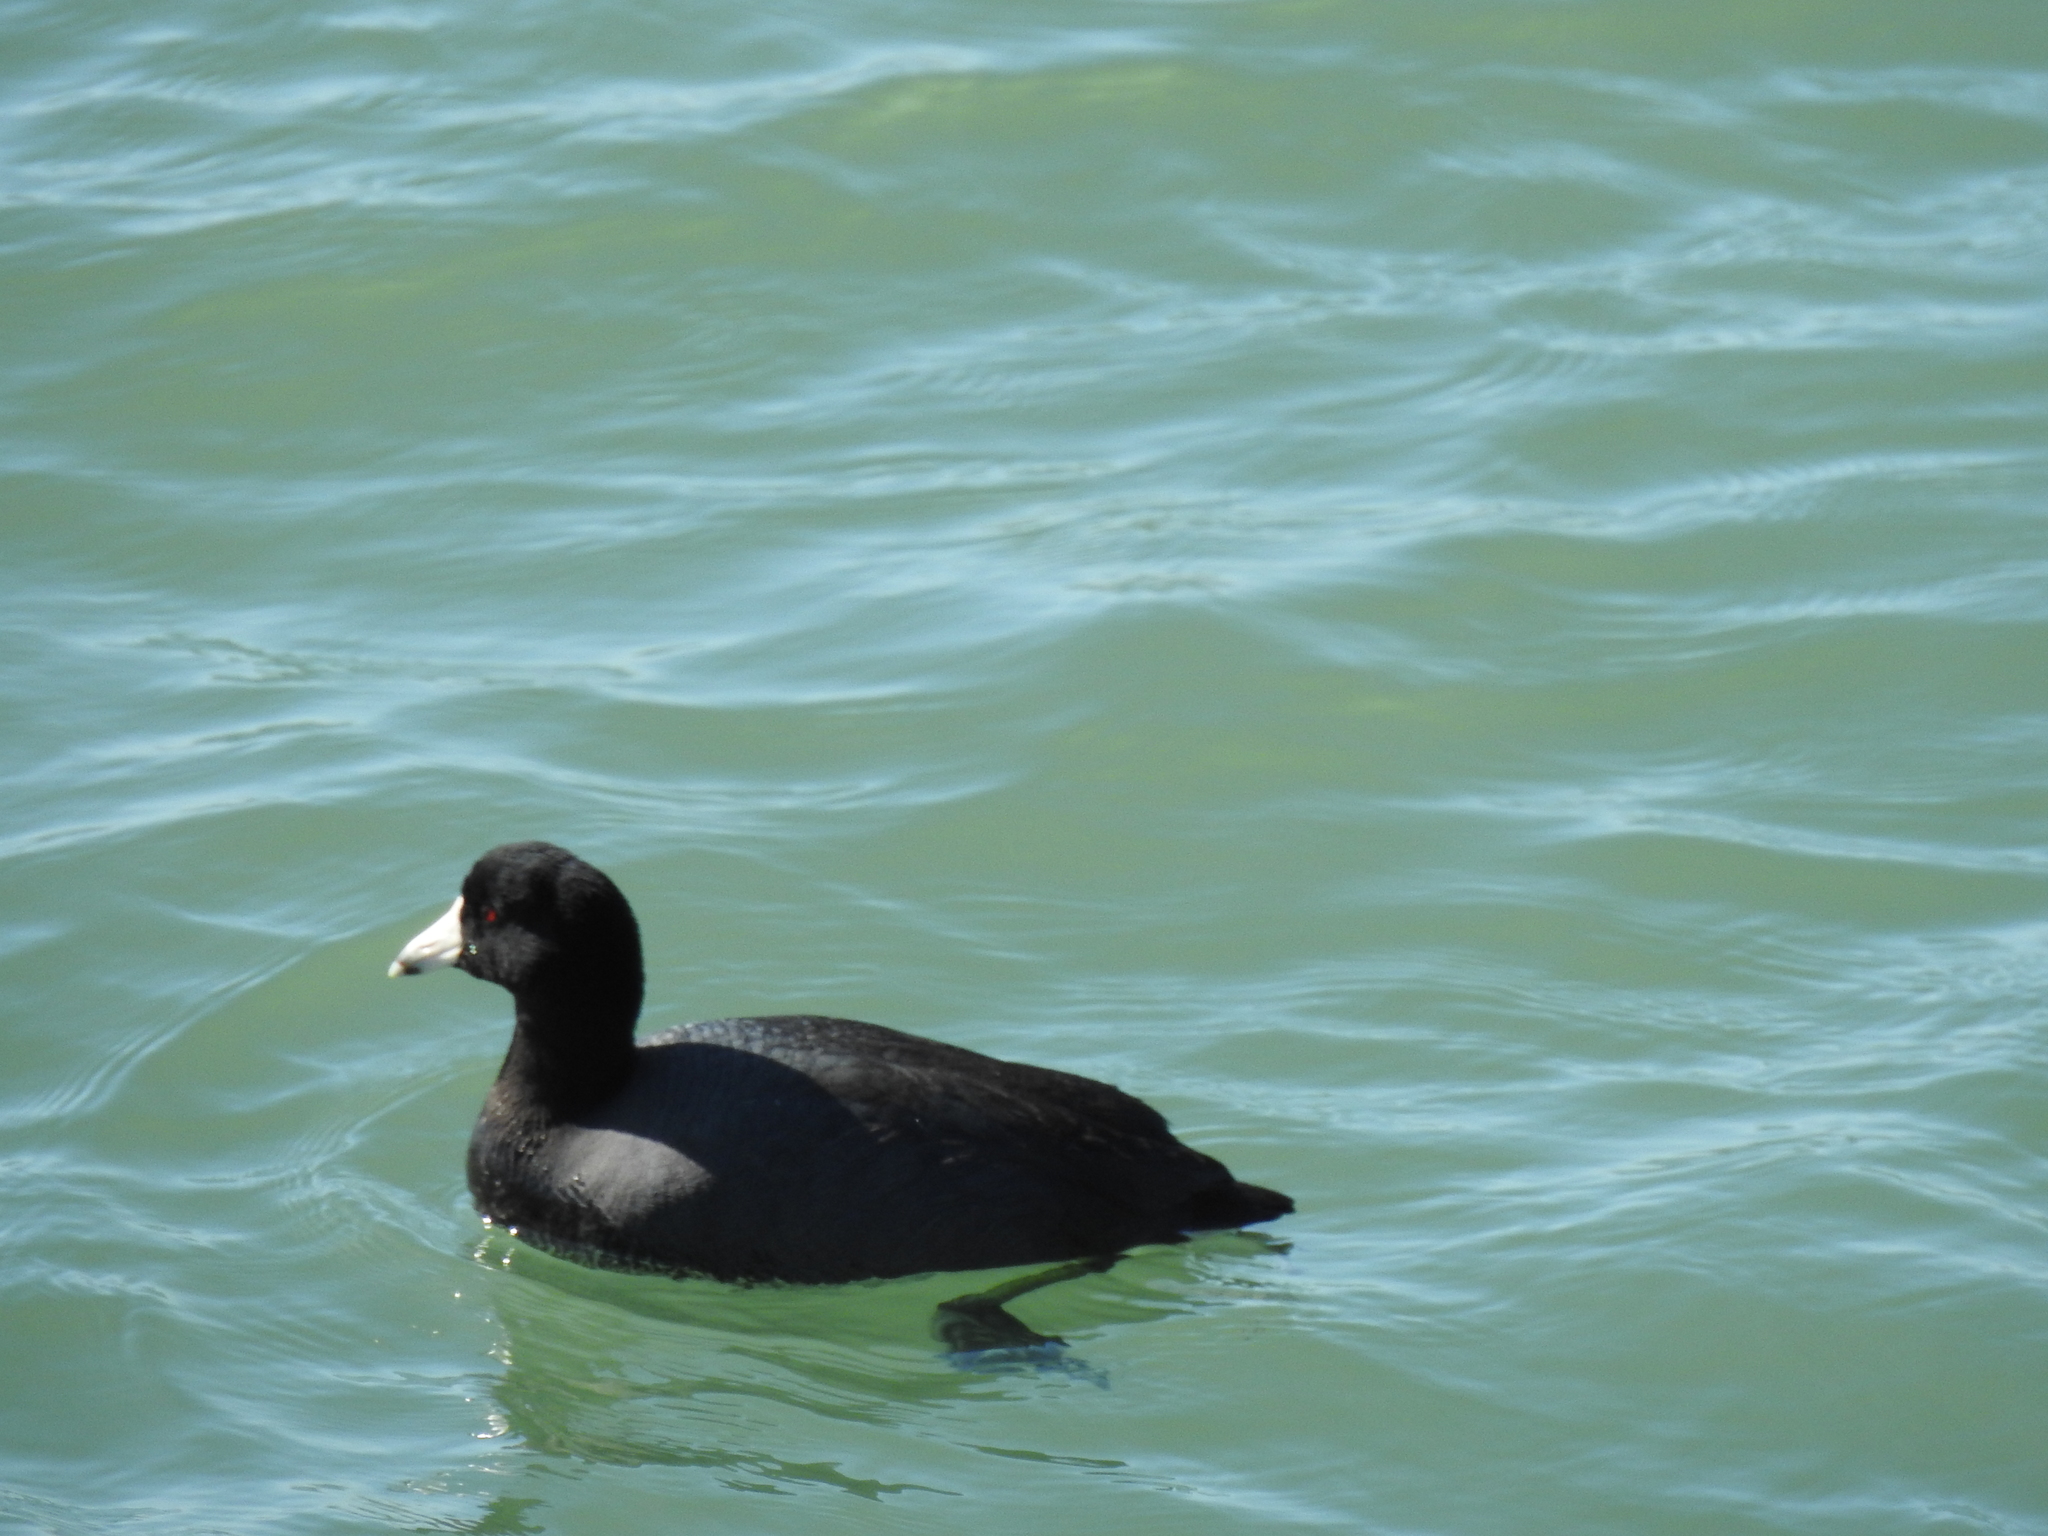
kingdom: Animalia
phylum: Chordata
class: Aves
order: Gruiformes
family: Rallidae
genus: Fulica
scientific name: Fulica americana
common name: American coot
